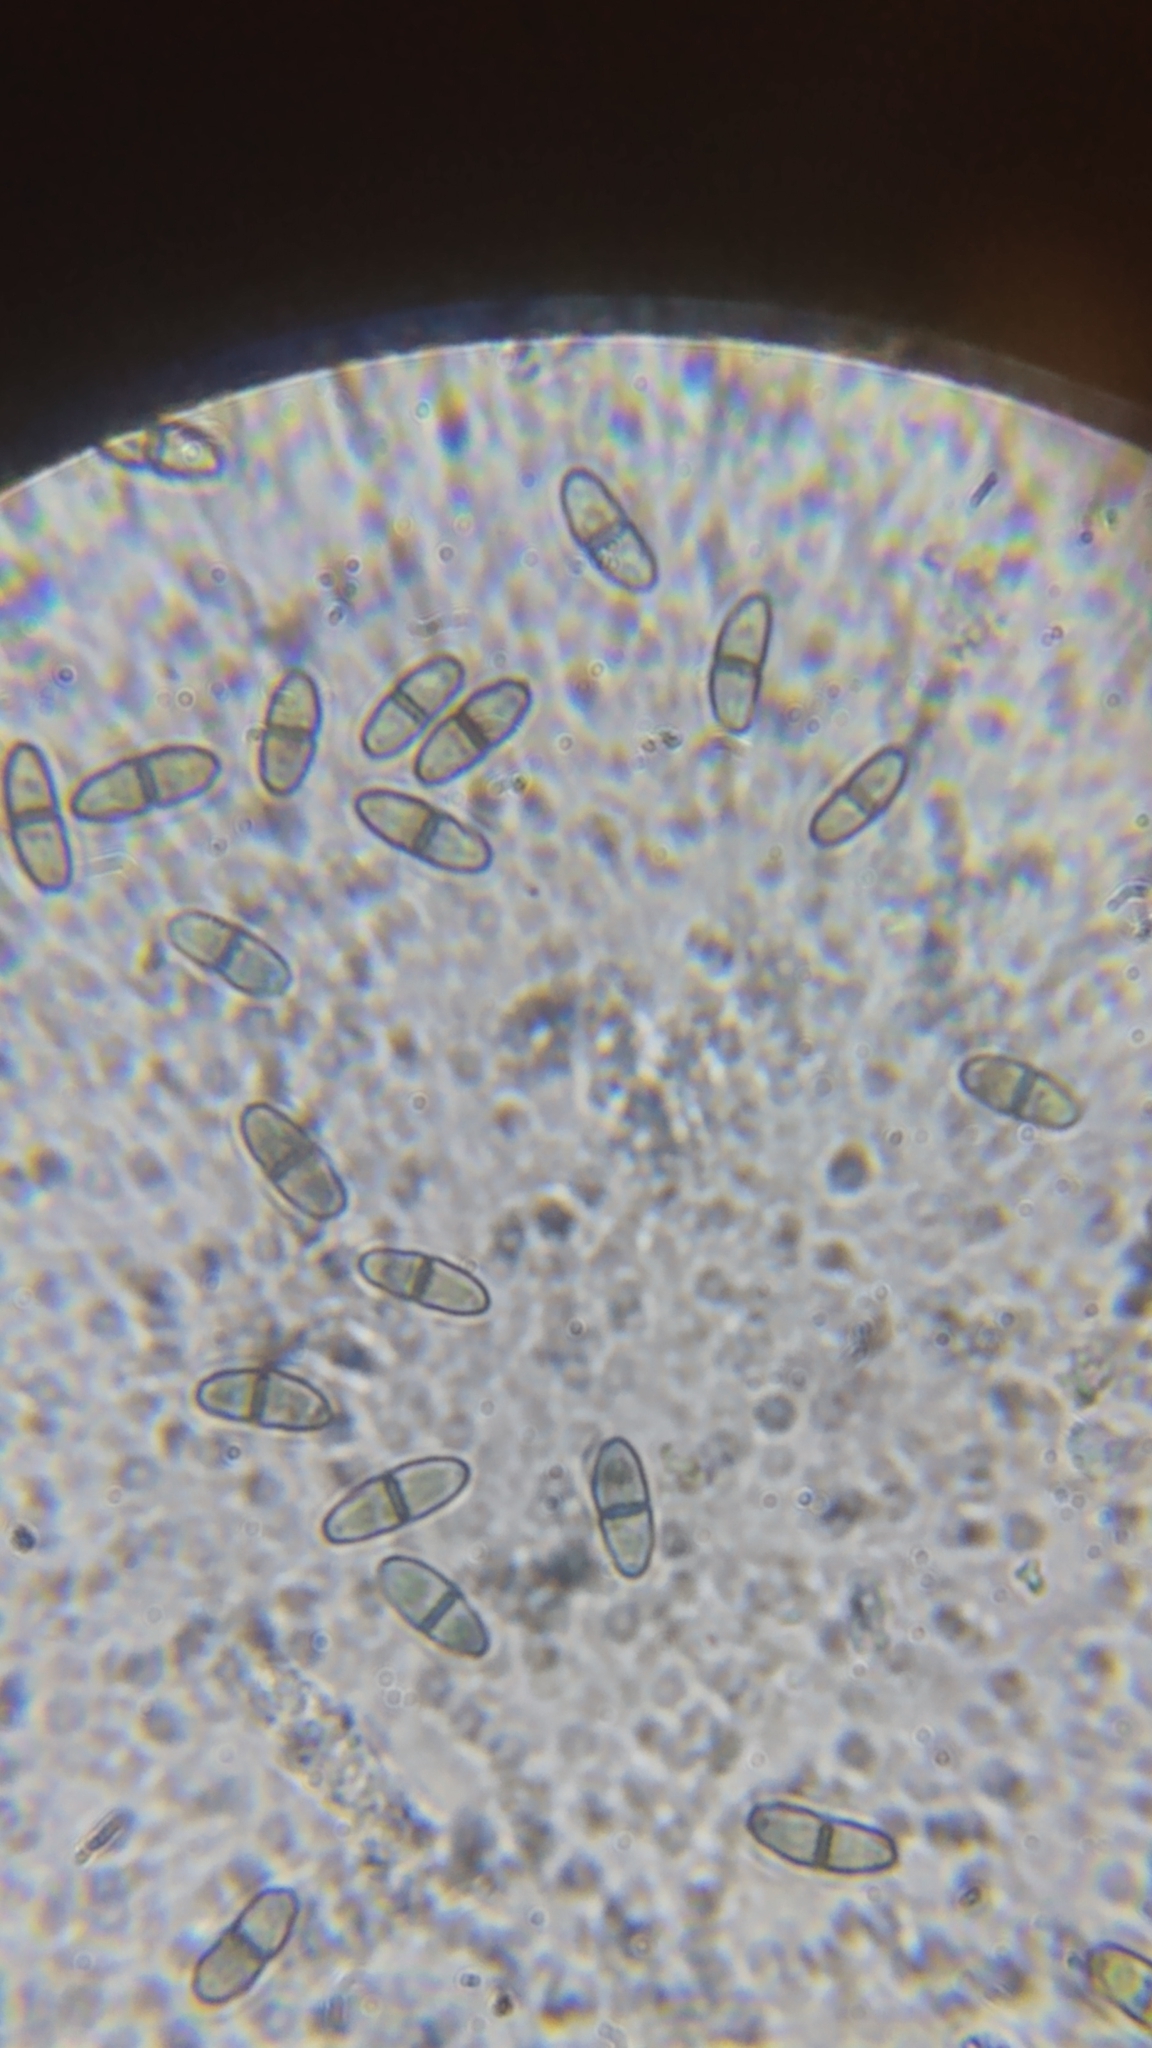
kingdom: Fungi
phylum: Ascomycota
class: Eurotiomycetes
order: Sclerococcales
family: Sclerococcaceae
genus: Sclerococcum
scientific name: Sclerococcum stygium
